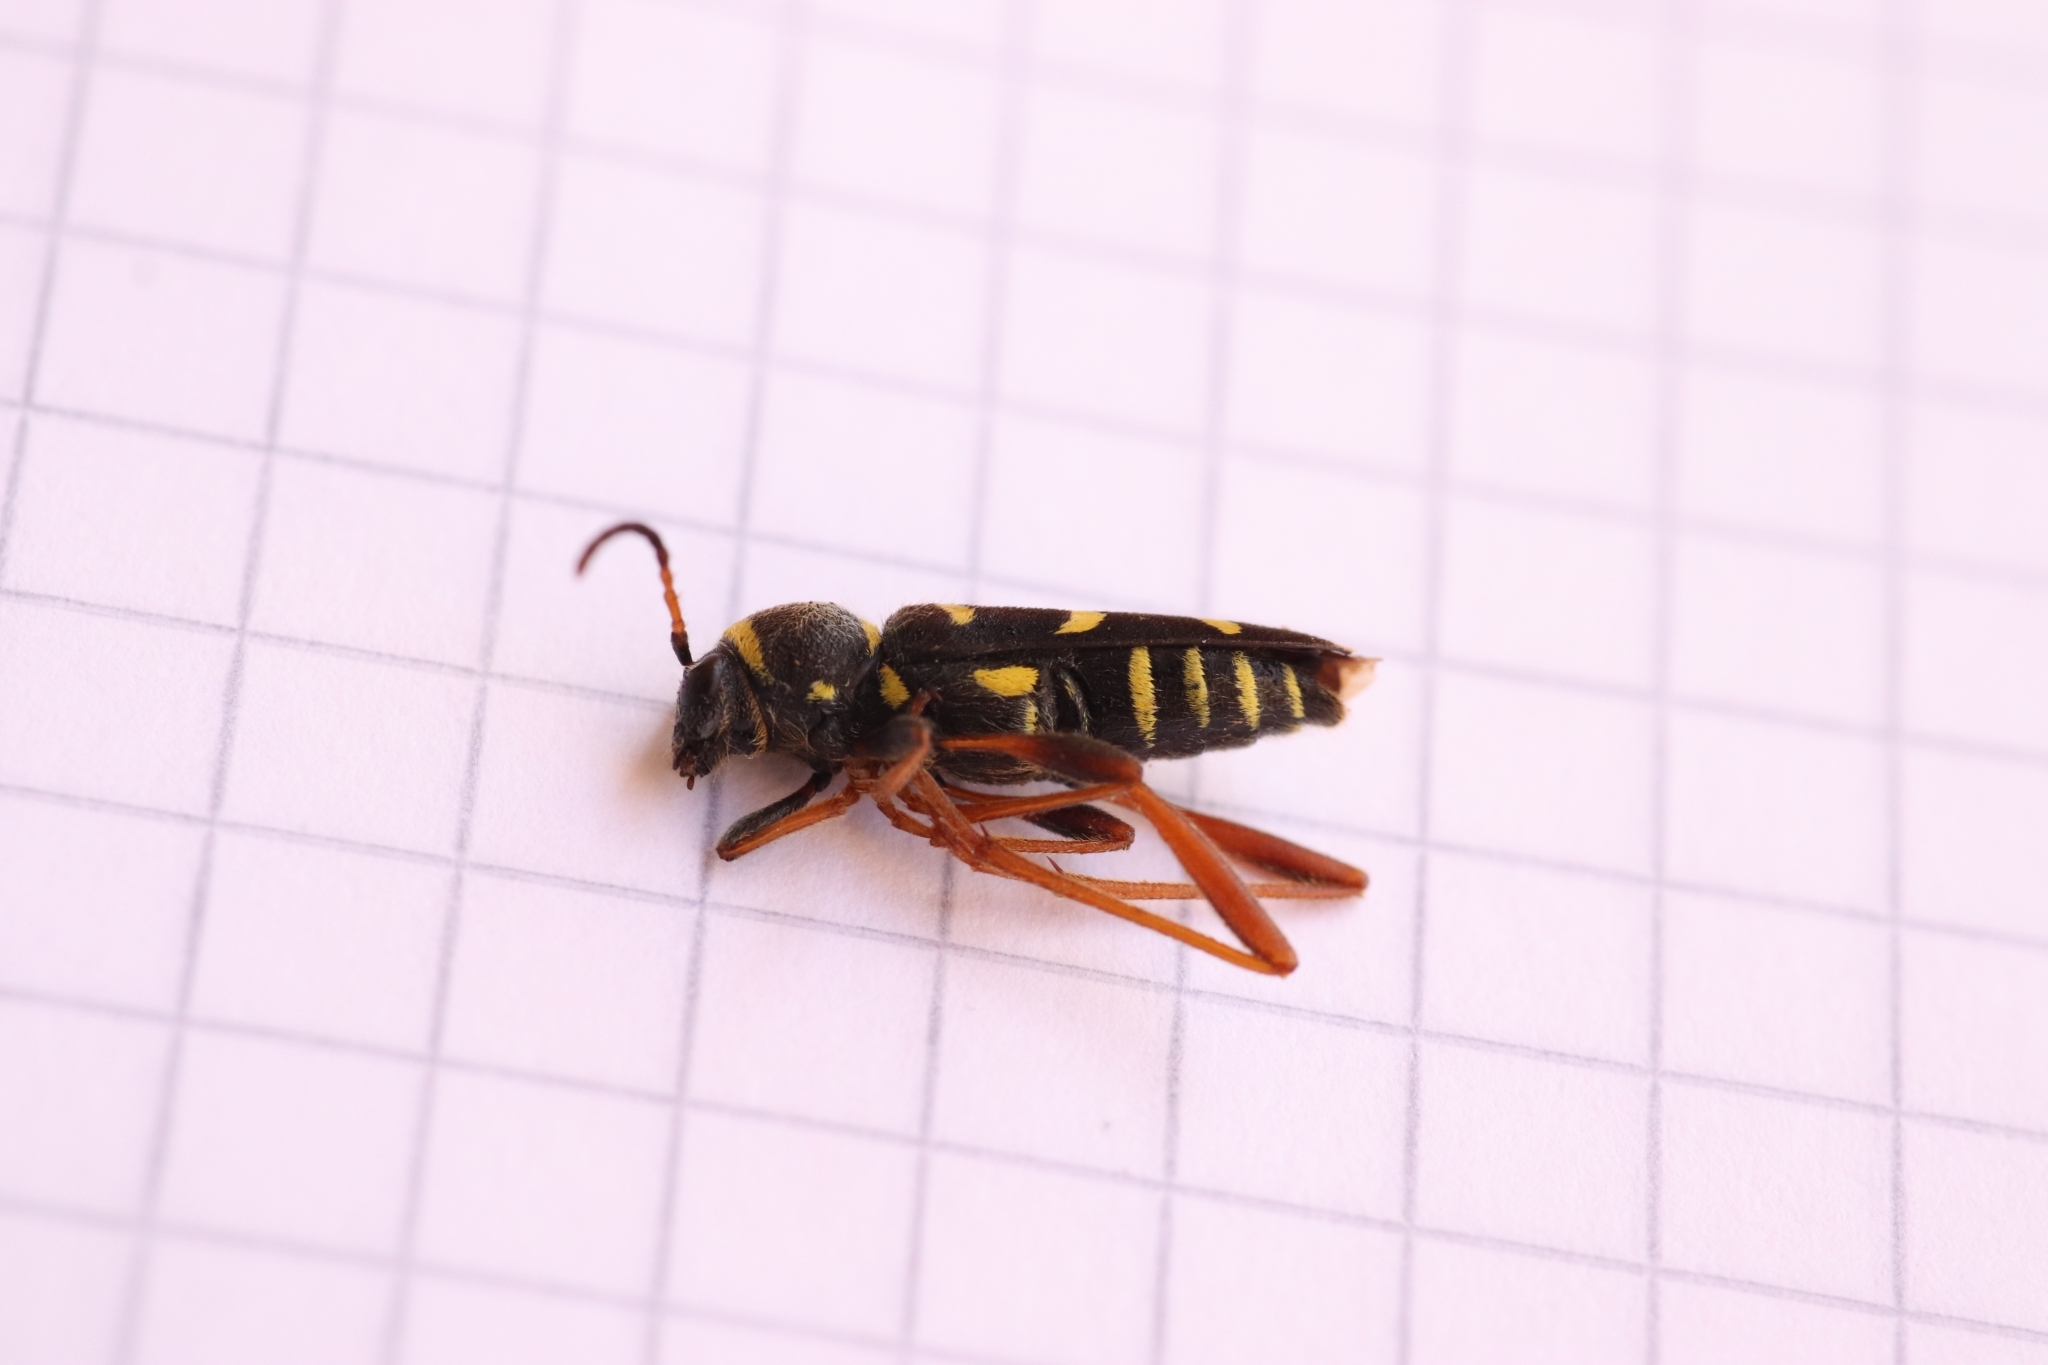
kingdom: Animalia
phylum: Arthropoda
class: Insecta
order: Coleoptera
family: Cerambycidae
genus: Clytus
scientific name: Clytus arietis
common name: Wasp beetle
